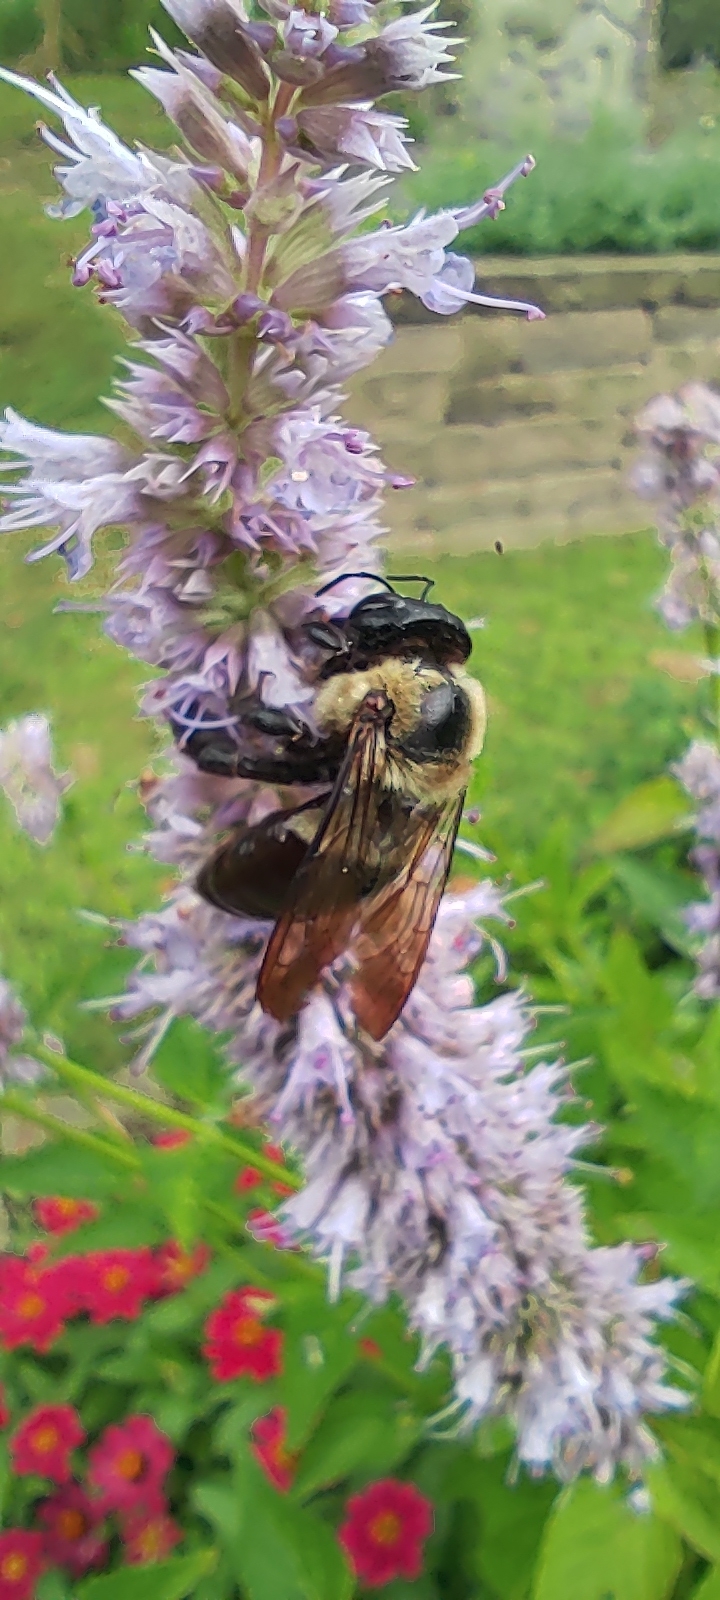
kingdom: Animalia
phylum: Arthropoda
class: Insecta
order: Hymenoptera
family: Apidae
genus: Xylocopa
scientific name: Xylocopa virginica
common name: Carpenter bee
